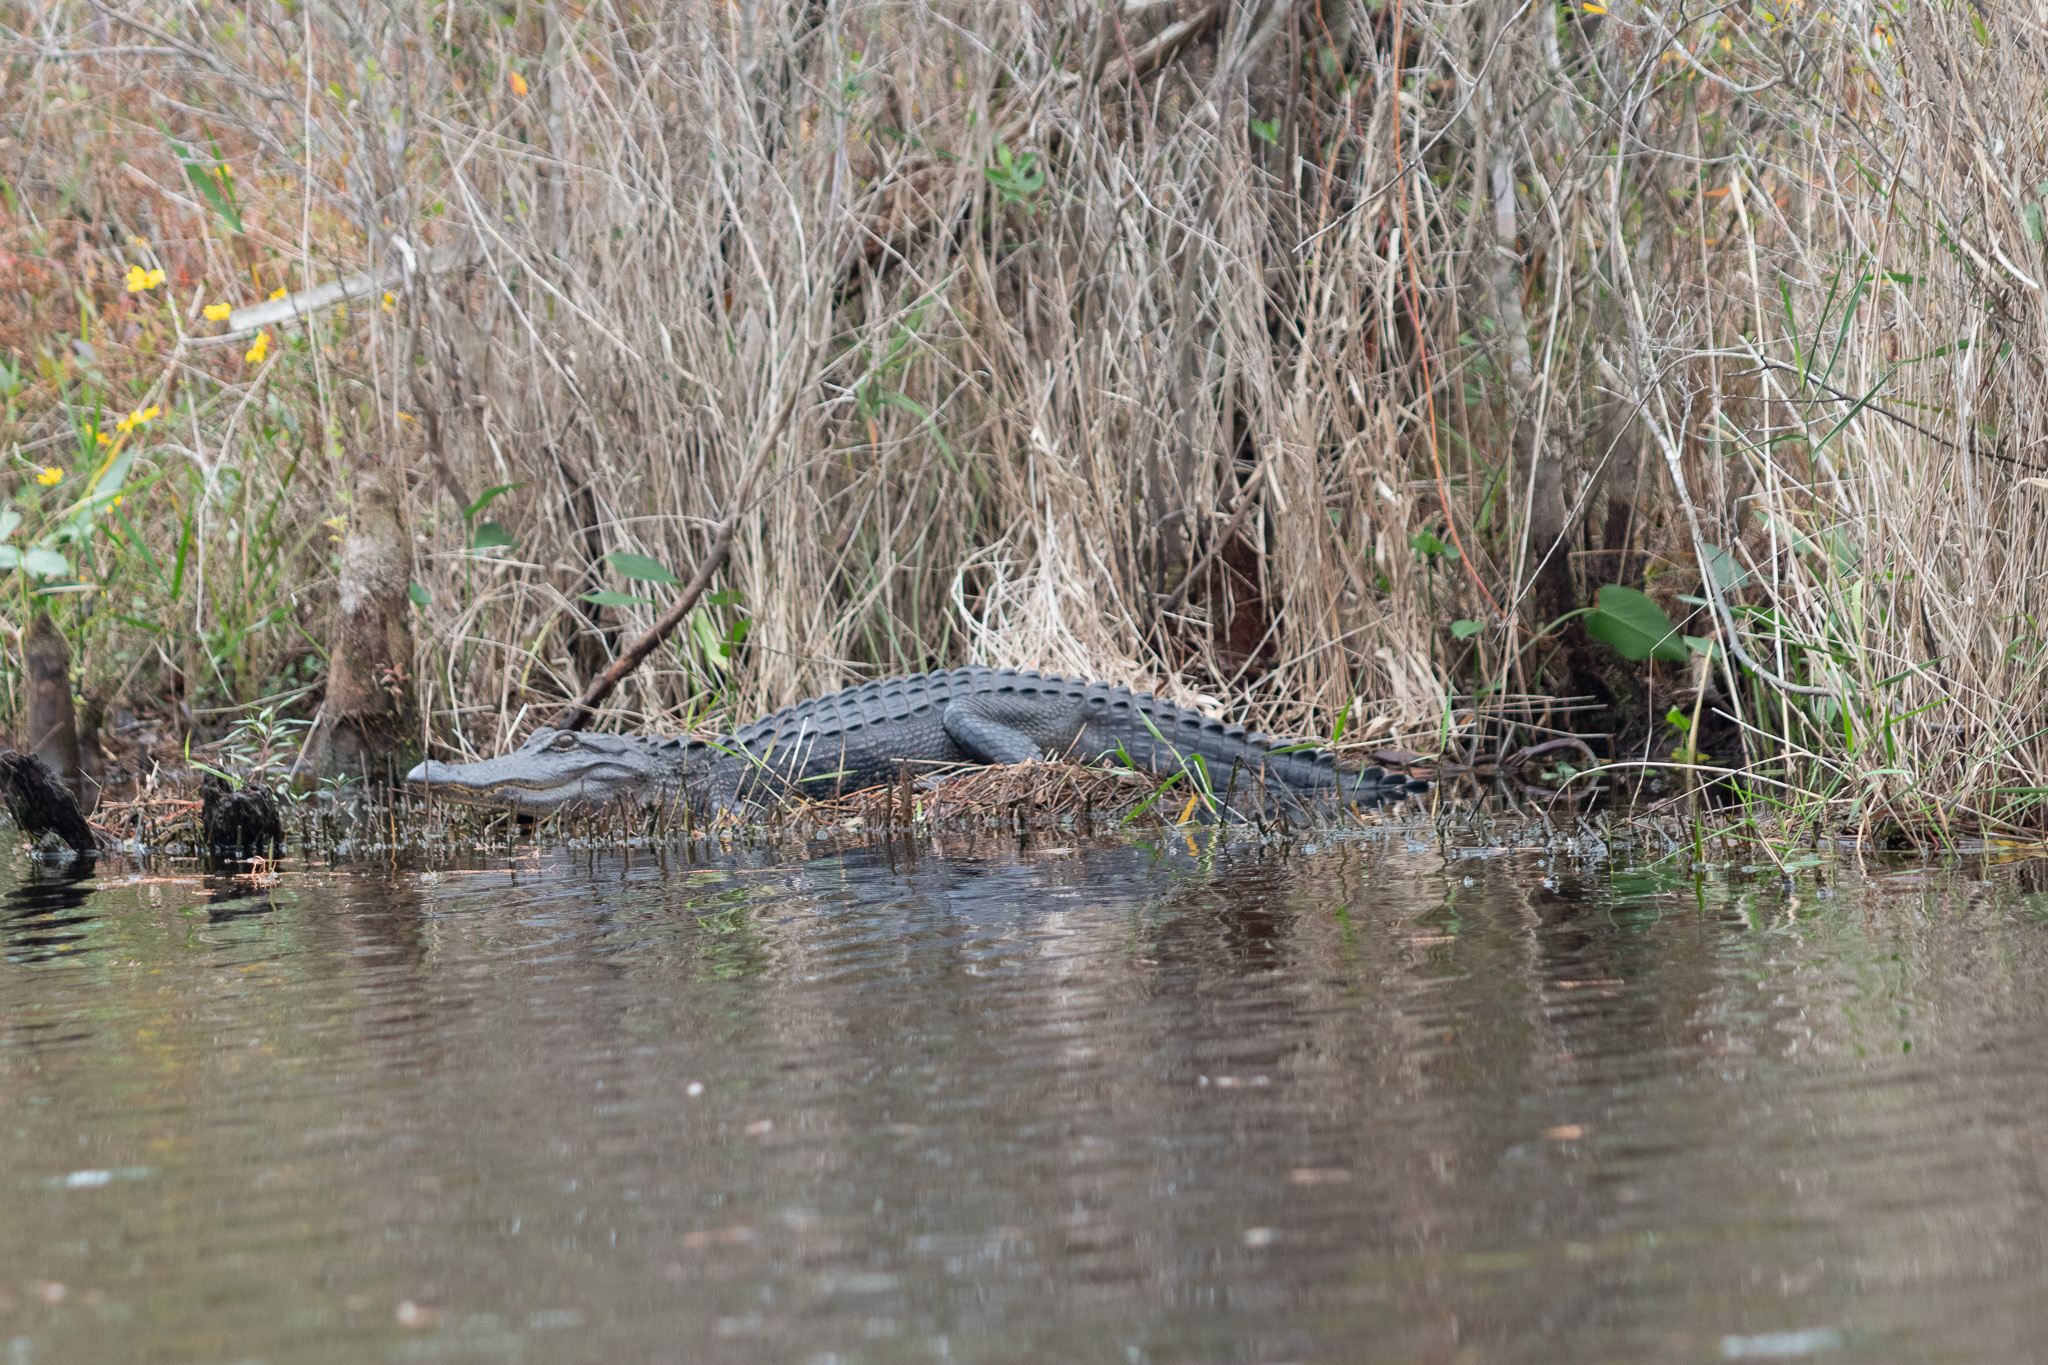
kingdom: Animalia
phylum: Chordata
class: Crocodylia
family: Alligatoridae
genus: Alligator
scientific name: Alligator mississippiensis
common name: American alligator
